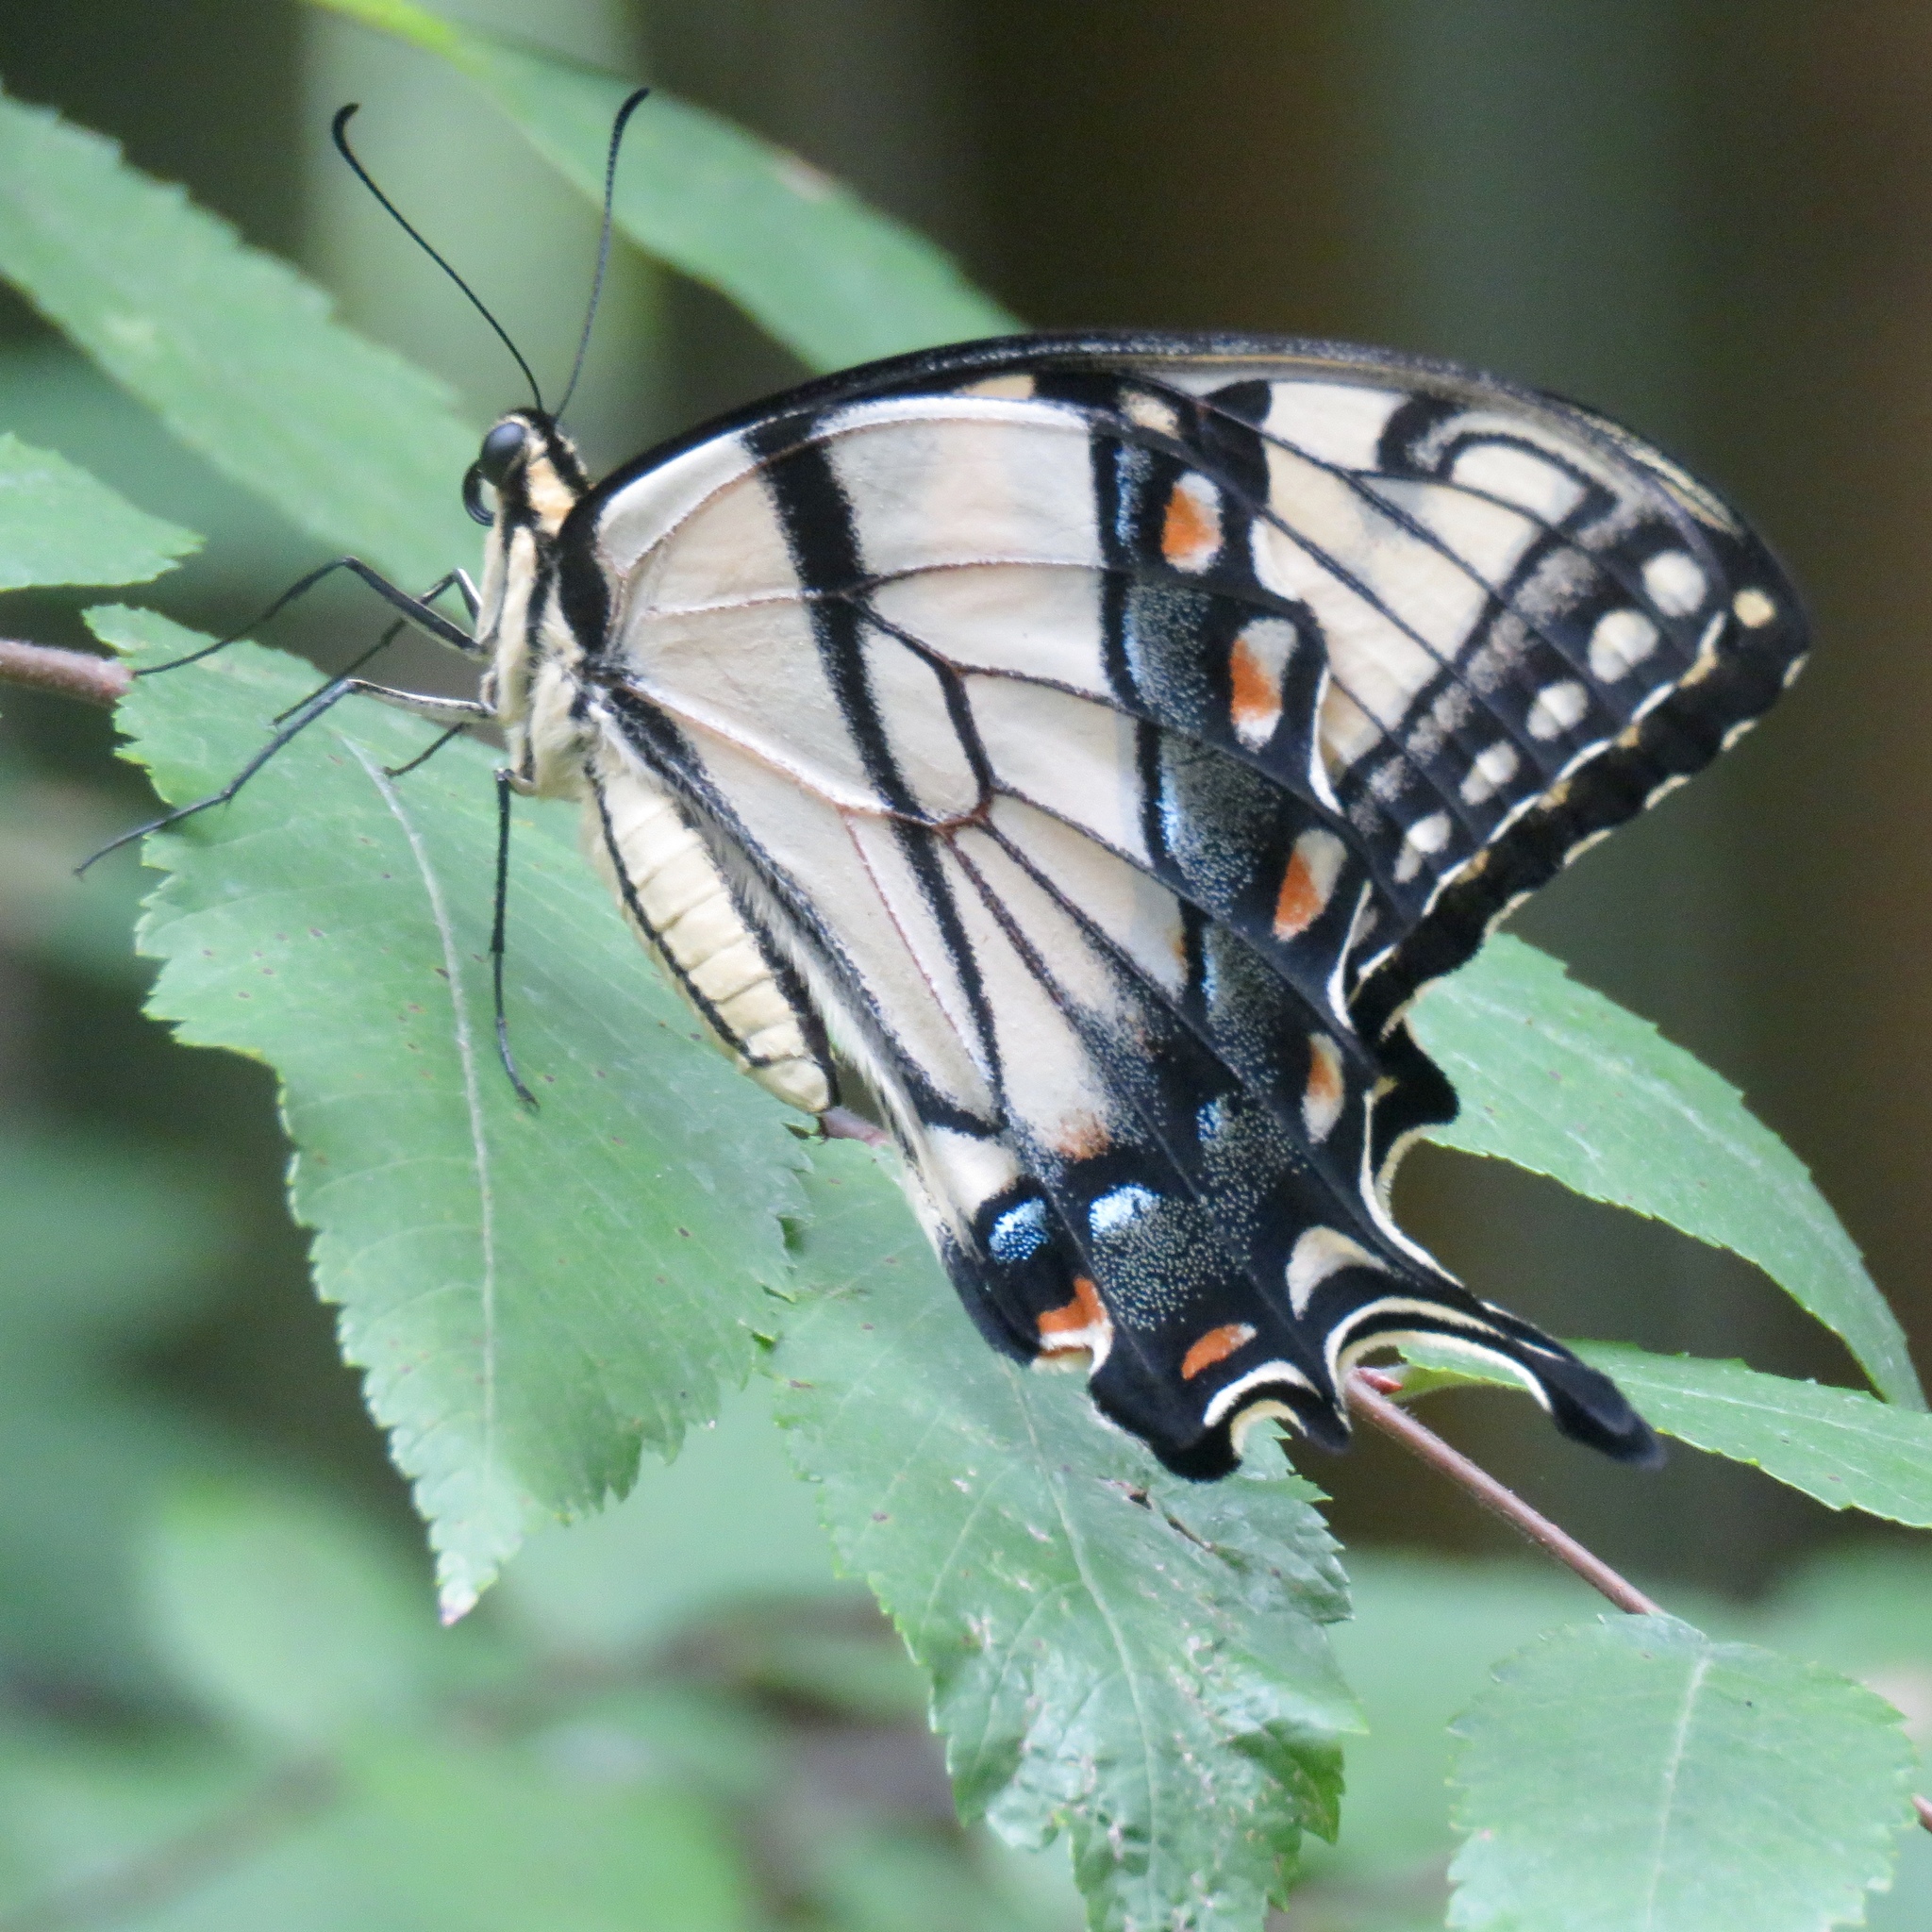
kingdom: Animalia
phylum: Arthropoda
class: Insecta
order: Lepidoptera
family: Papilionidae
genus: Papilio
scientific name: Papilio glaucus
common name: Tiger swallowtail
